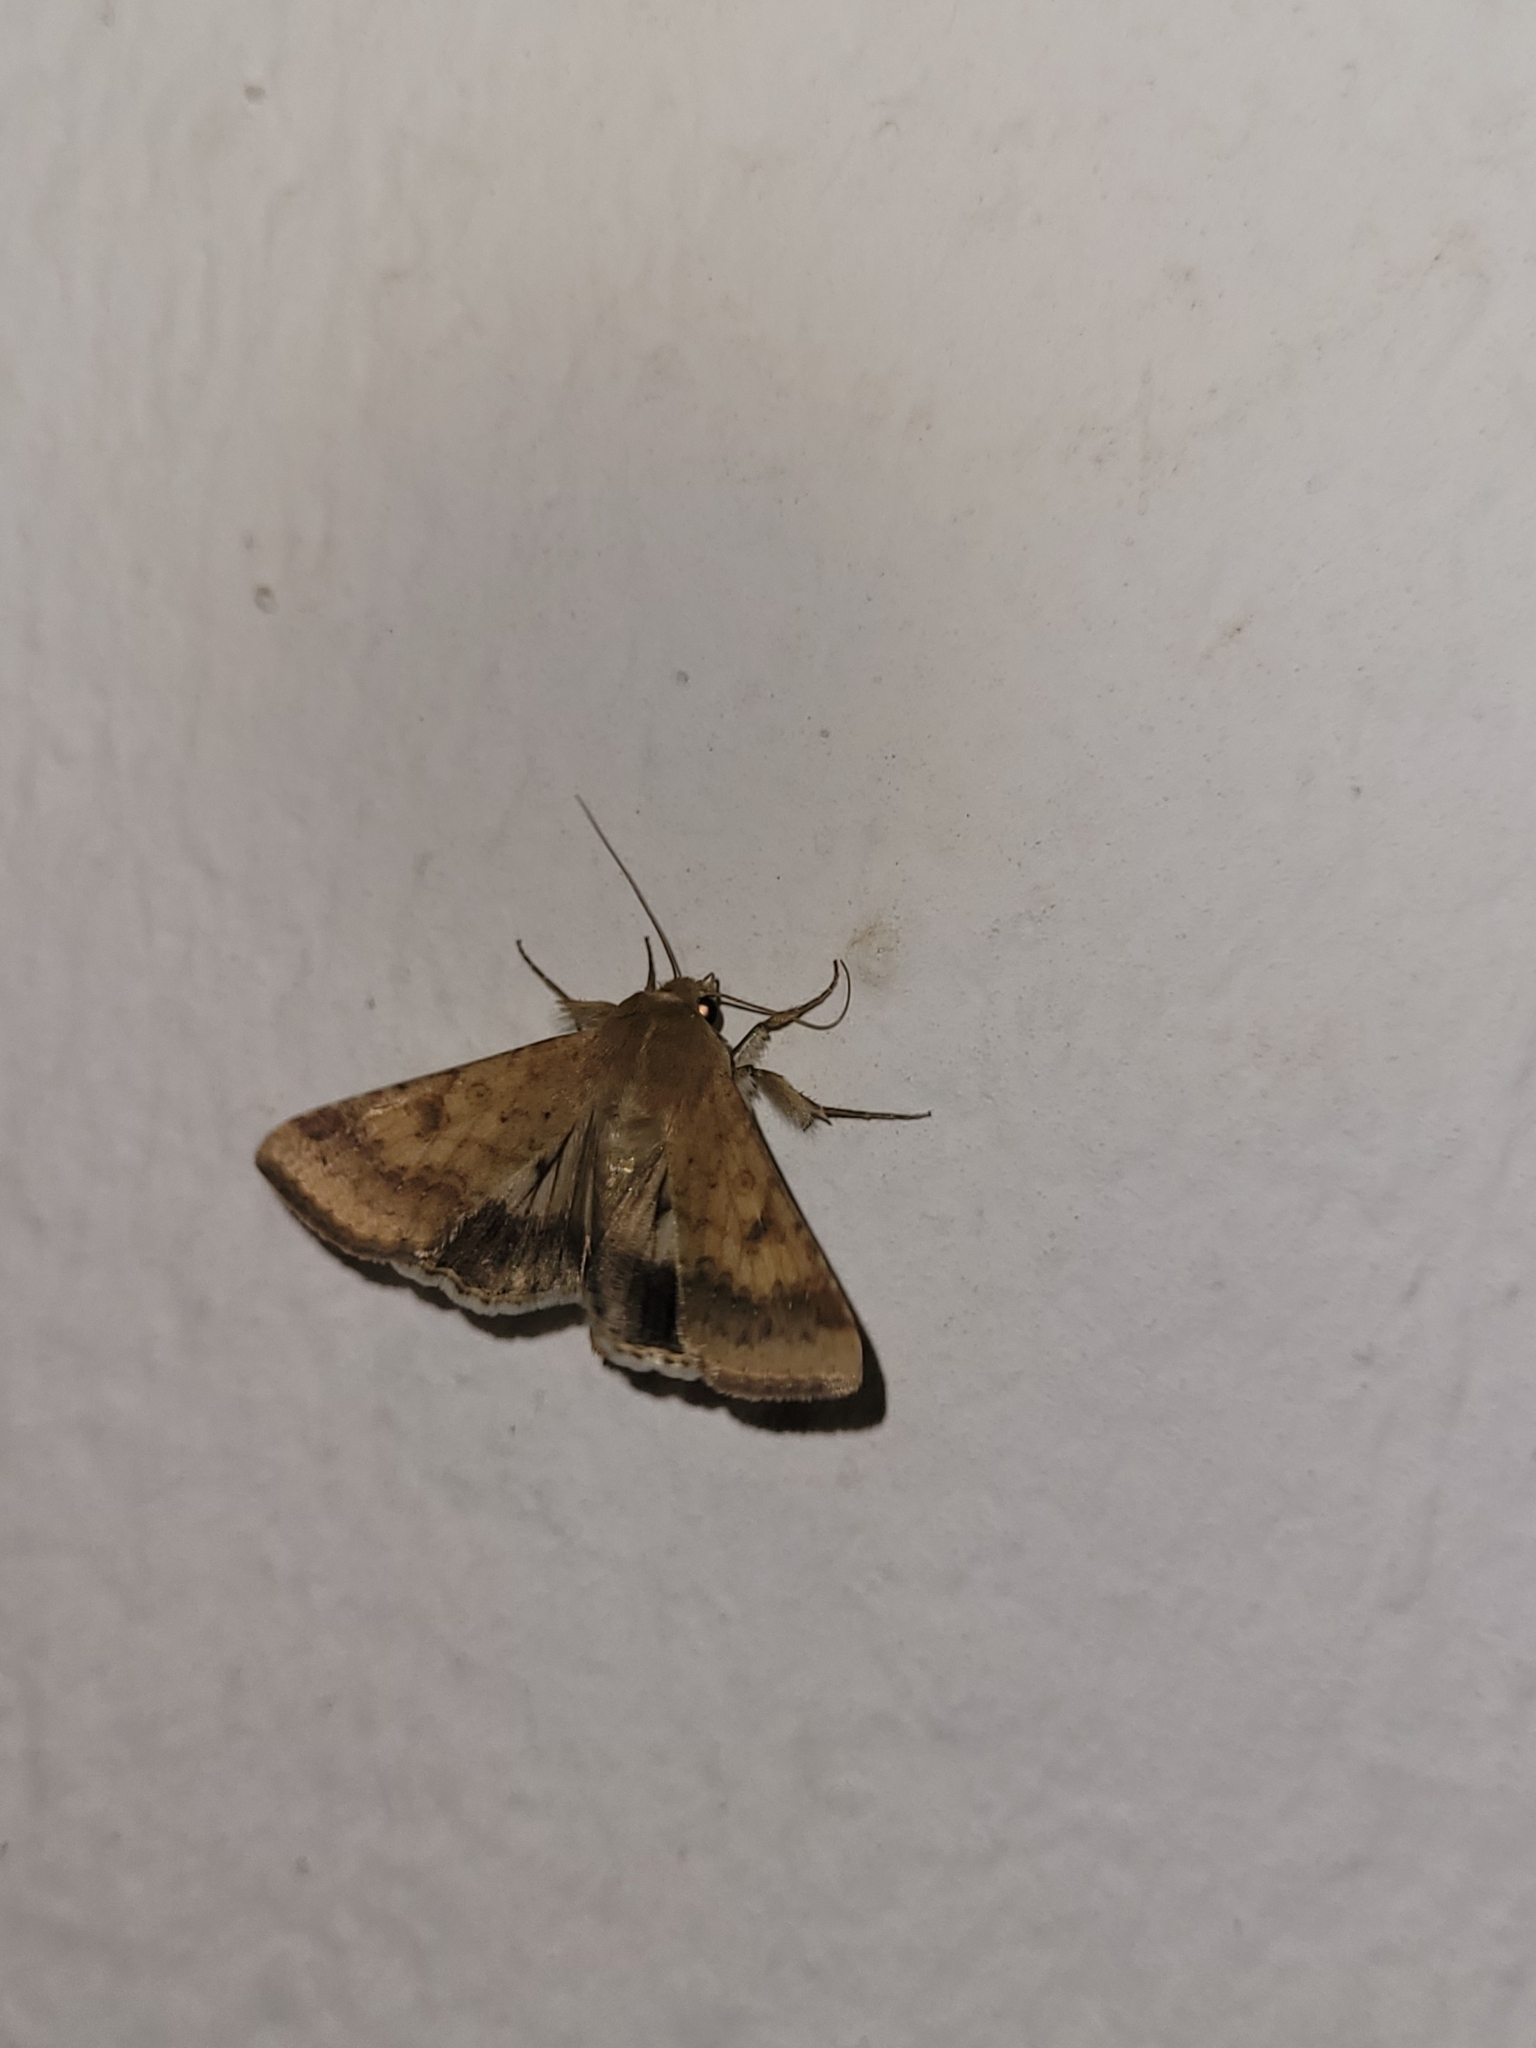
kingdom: Animalia
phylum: Arthropoda
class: Insecta
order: Lepidoptera
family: Noctuidae
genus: Helicoverpa
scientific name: Helicoverpa armigera
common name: Cotton bollworm
